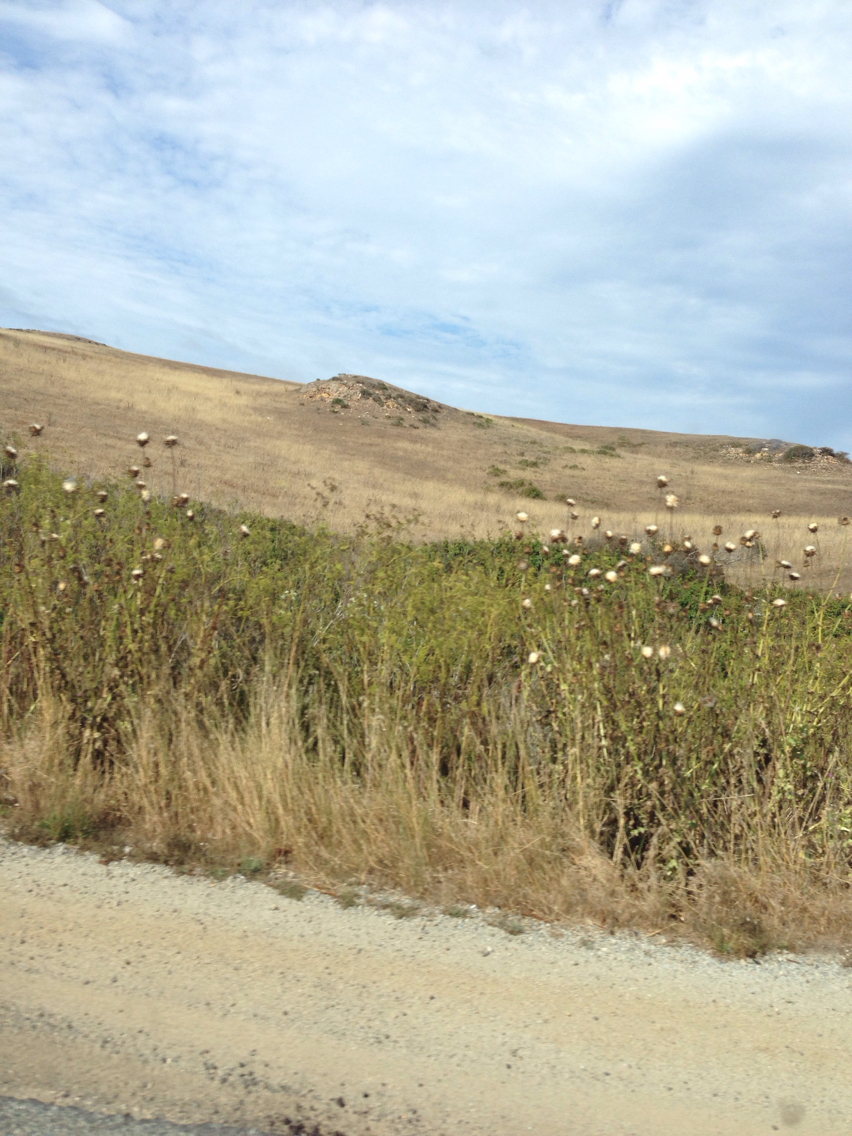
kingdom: Plantae
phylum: Tracheophyta
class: Magnoliopsida
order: Asterales
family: Asteraceae
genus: Silybum
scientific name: Silybum marianum
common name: Milk thistle
